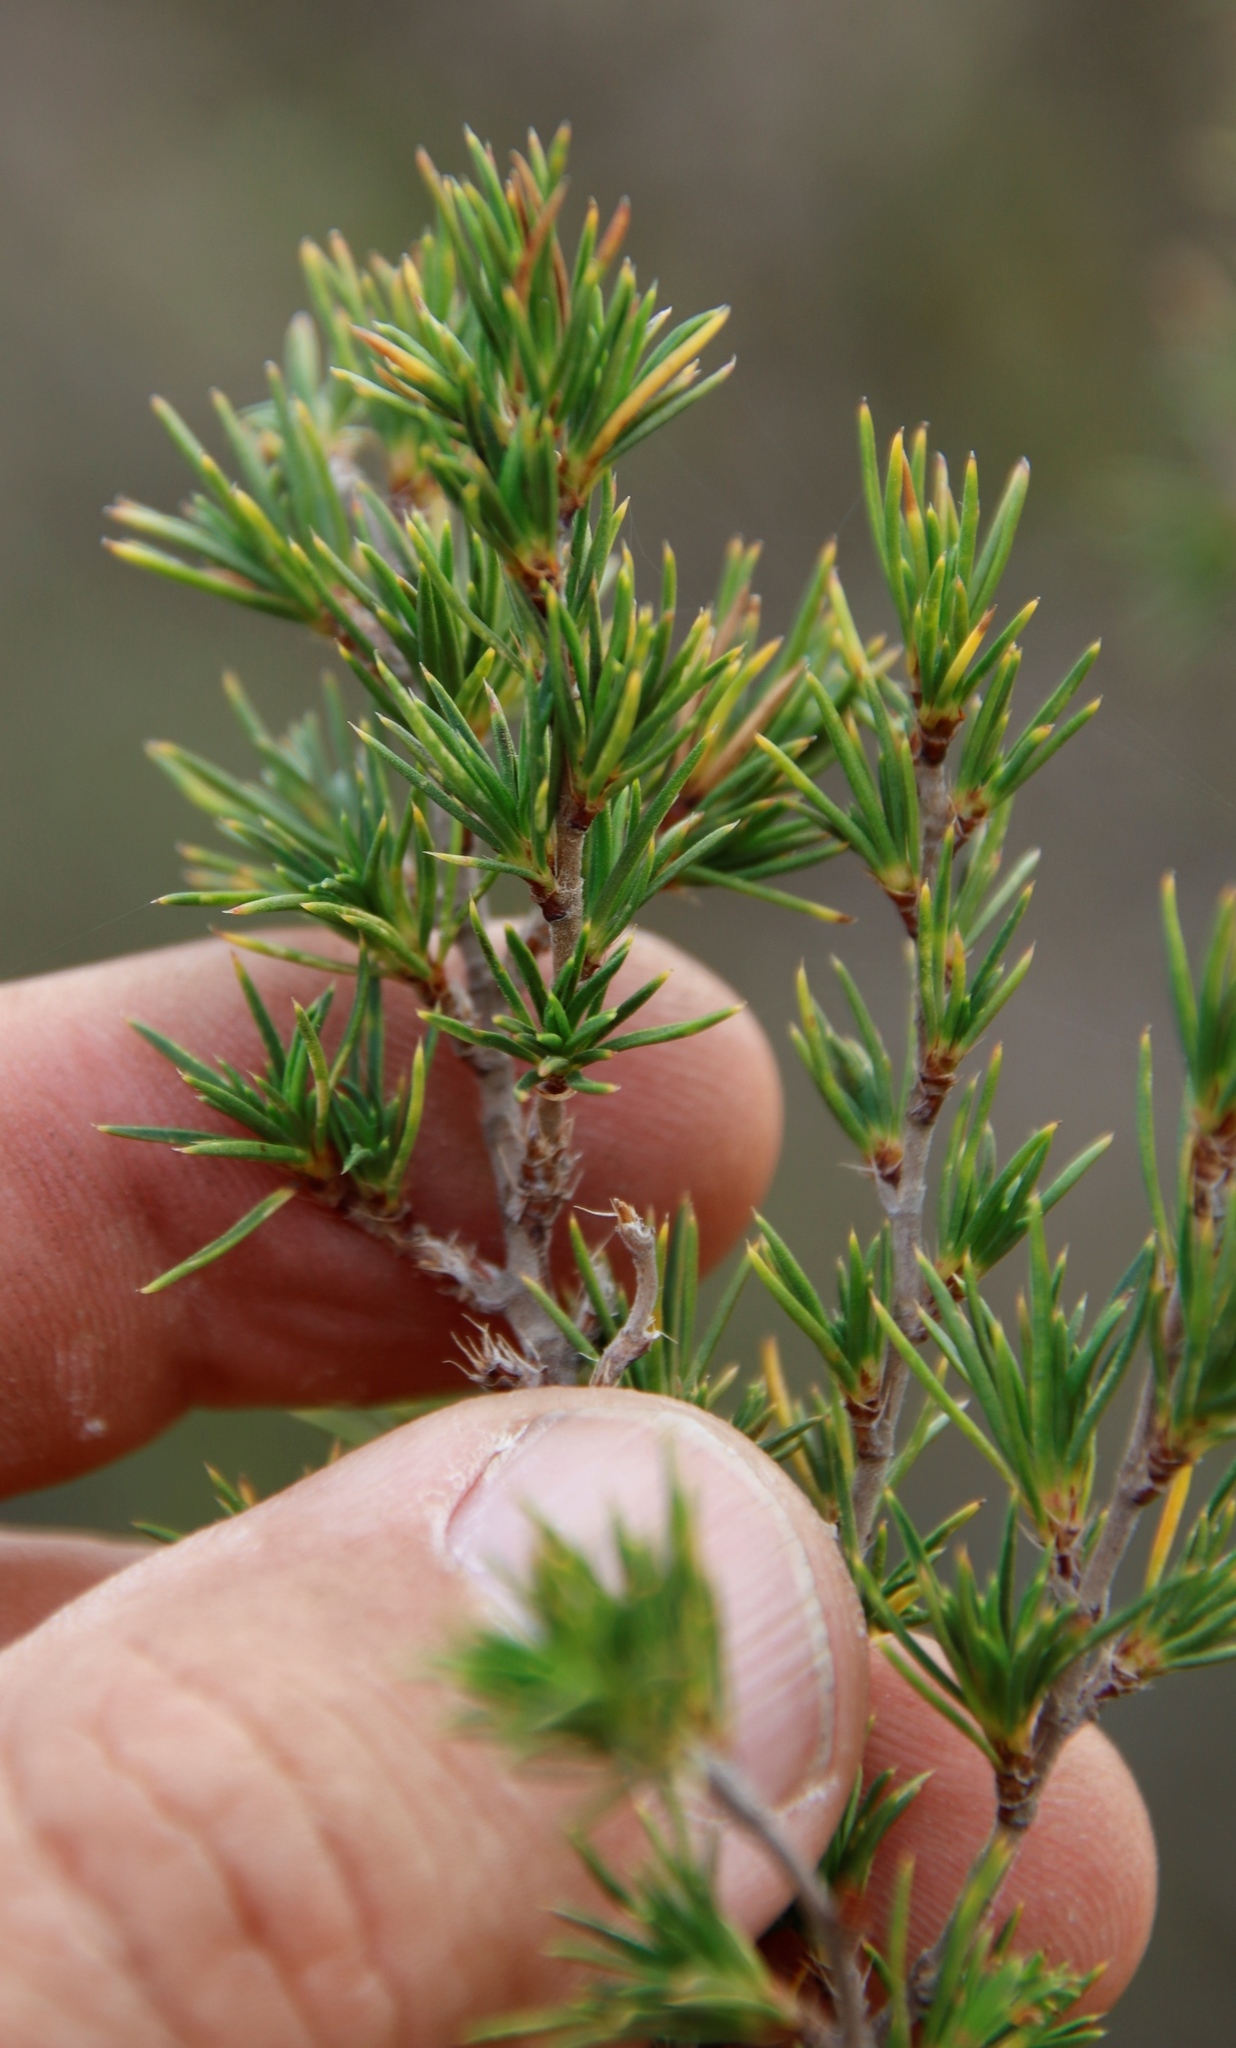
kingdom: Plantae
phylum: Tracheophyta
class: Magnoliopsida
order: Rosales
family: Rosaceae
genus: Cliffortia
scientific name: Cliffortia atrata
